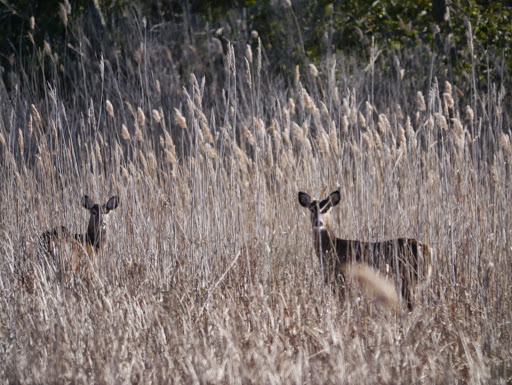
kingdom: Animalia
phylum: Chordata
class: Mammalia
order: Artiodactyla
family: Cervidae
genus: Odocoileus
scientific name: Odocoileus virginianus
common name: White-tailed deer
